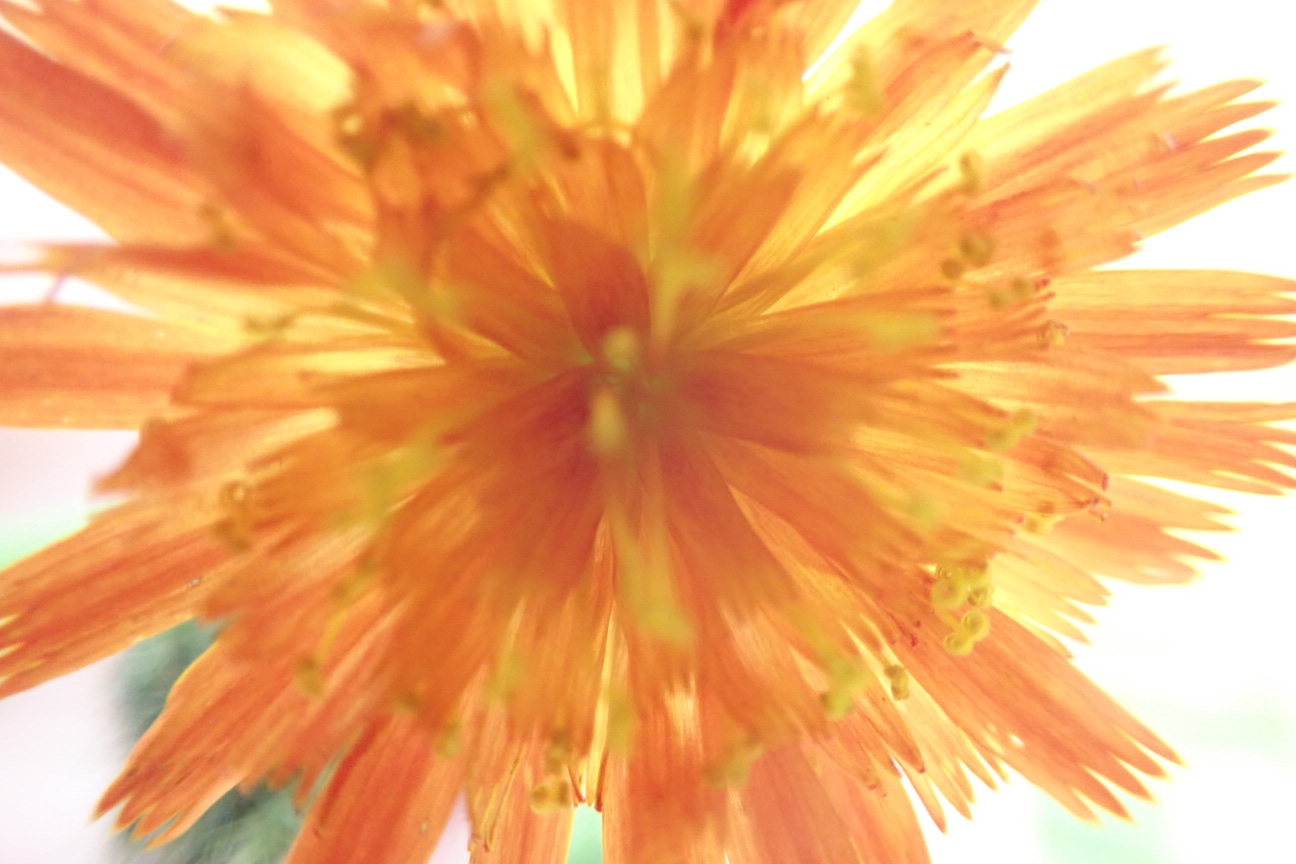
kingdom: Plantae
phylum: Tracheophyta
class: Magnoliopsida
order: Asterales
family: Asteraceae
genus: Pilosella
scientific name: Pilosella aurantiaca
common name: Fox-and-cubs
